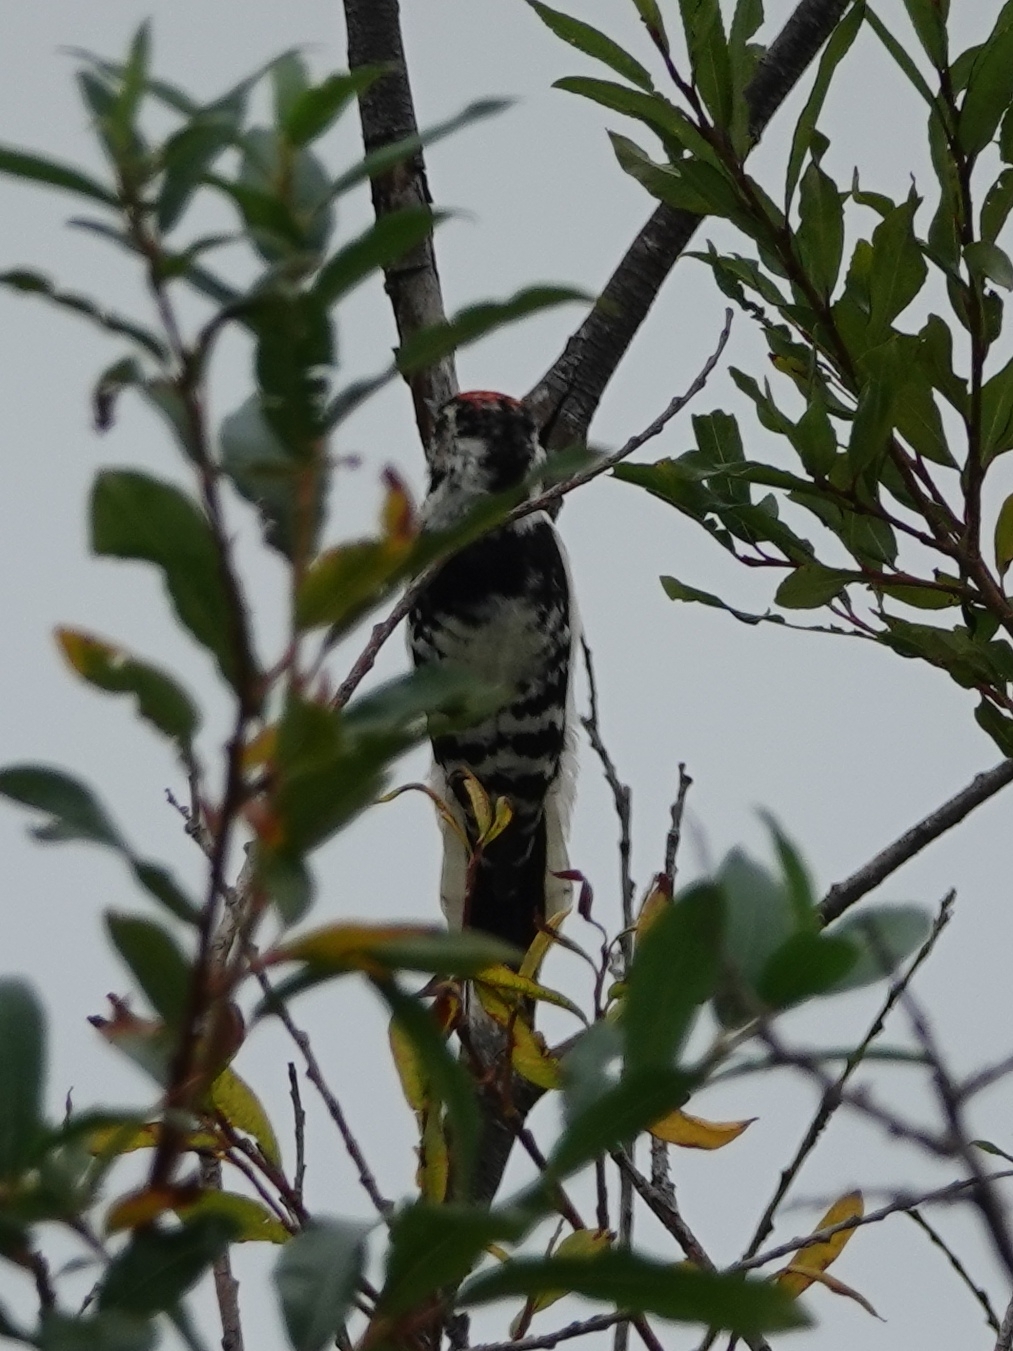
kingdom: Animalia
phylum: Chordata
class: Aves
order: Piciformes
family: Picidae
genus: Dryobates
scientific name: Dryobates minor
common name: Lesser spotted woodpecker
